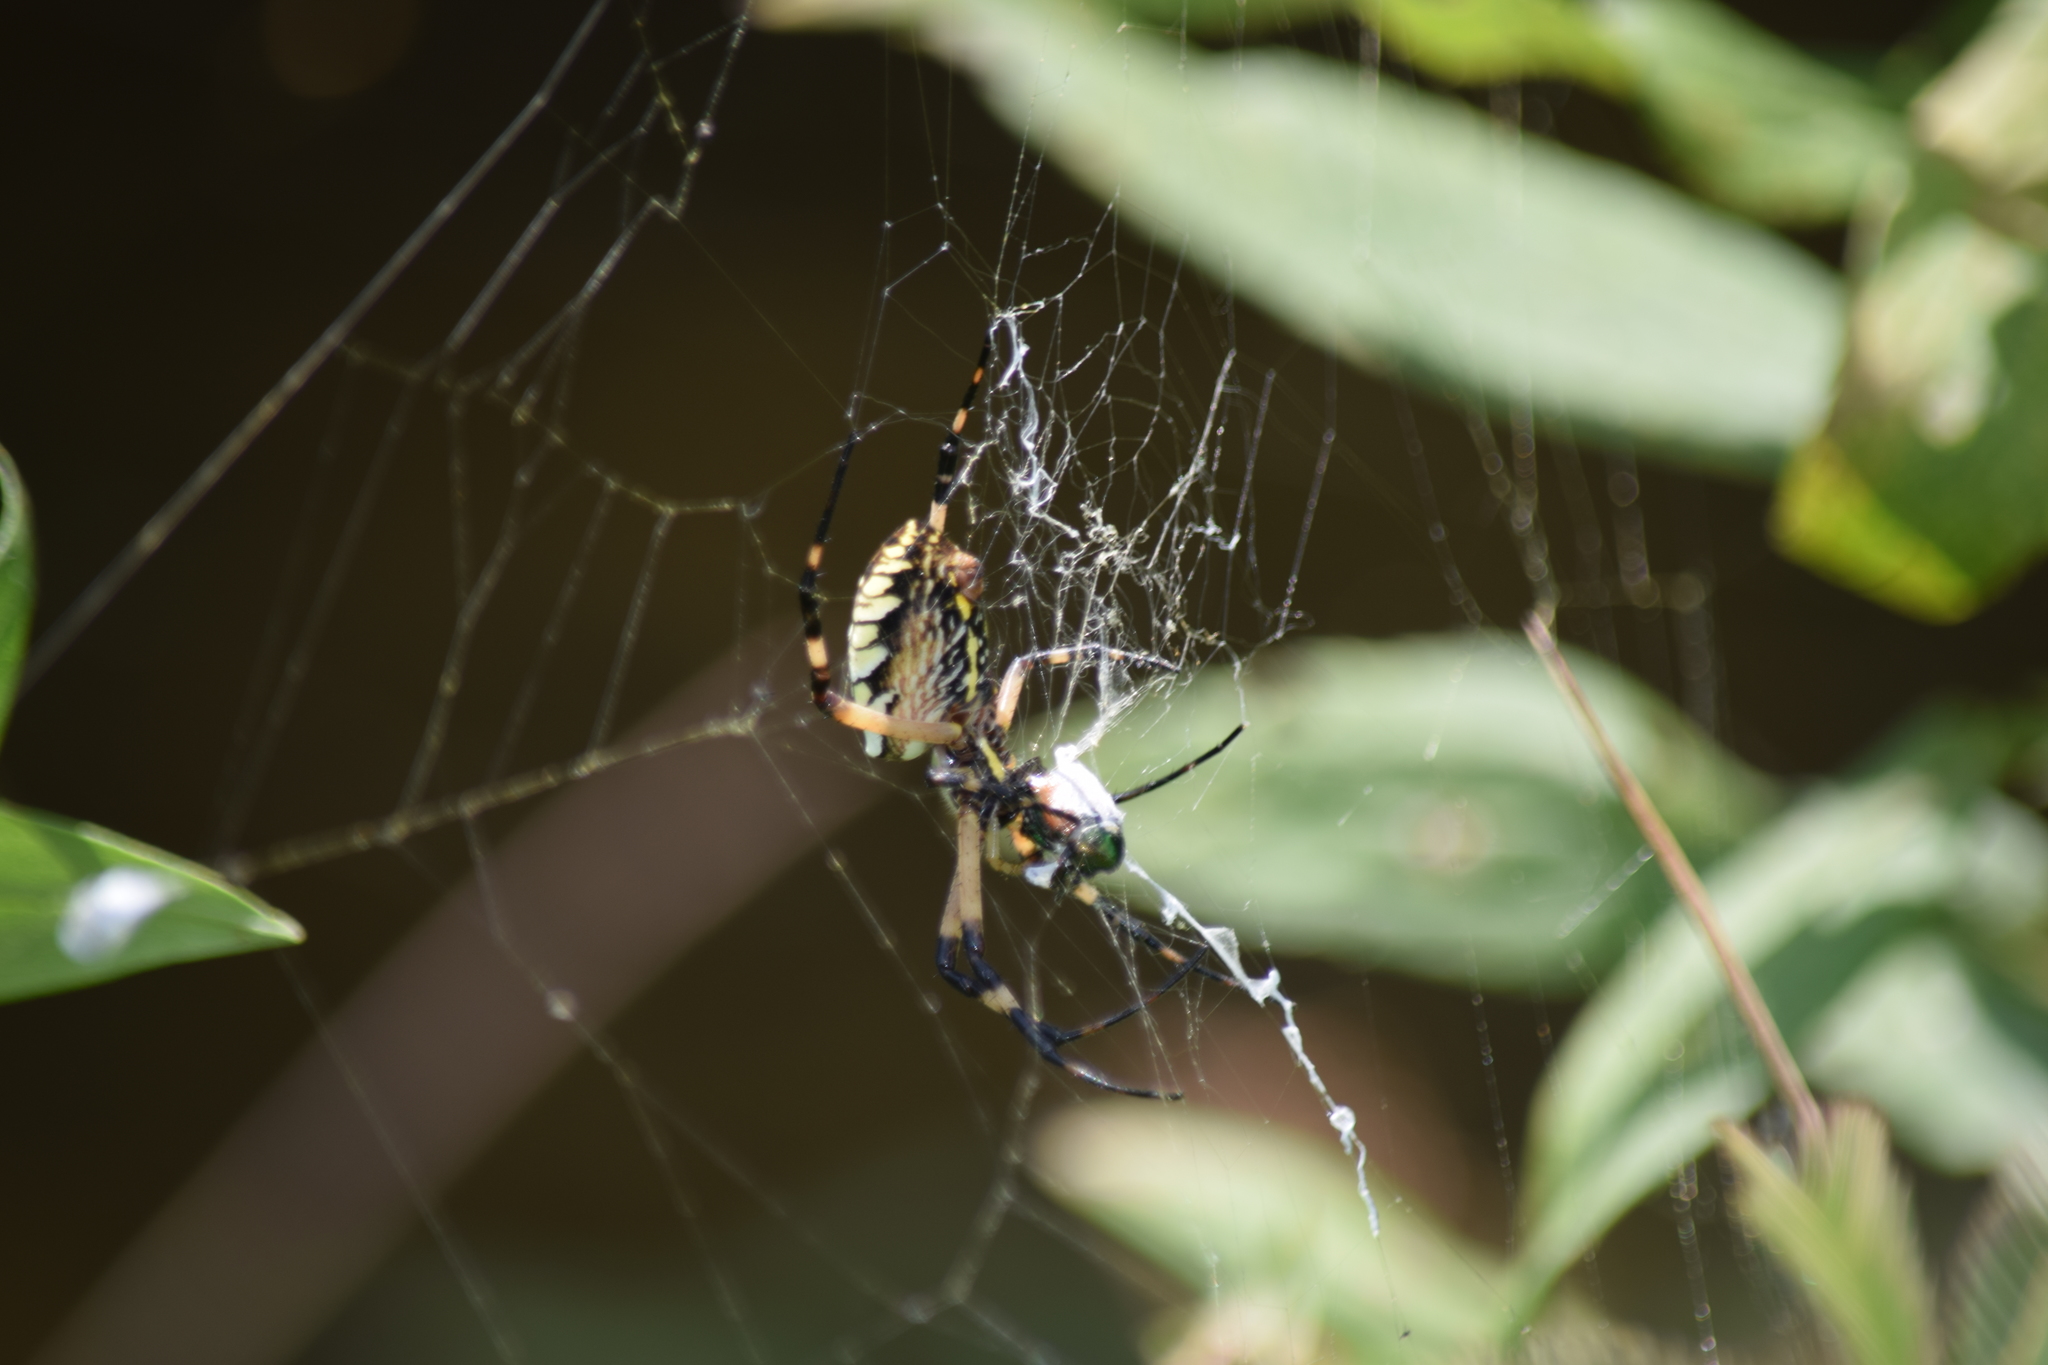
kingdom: Animalia
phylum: Arthropoda
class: Arachnida
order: Araneae
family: Araneidae
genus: Argiope
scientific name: Argiope aurantia
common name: Orb weavers
